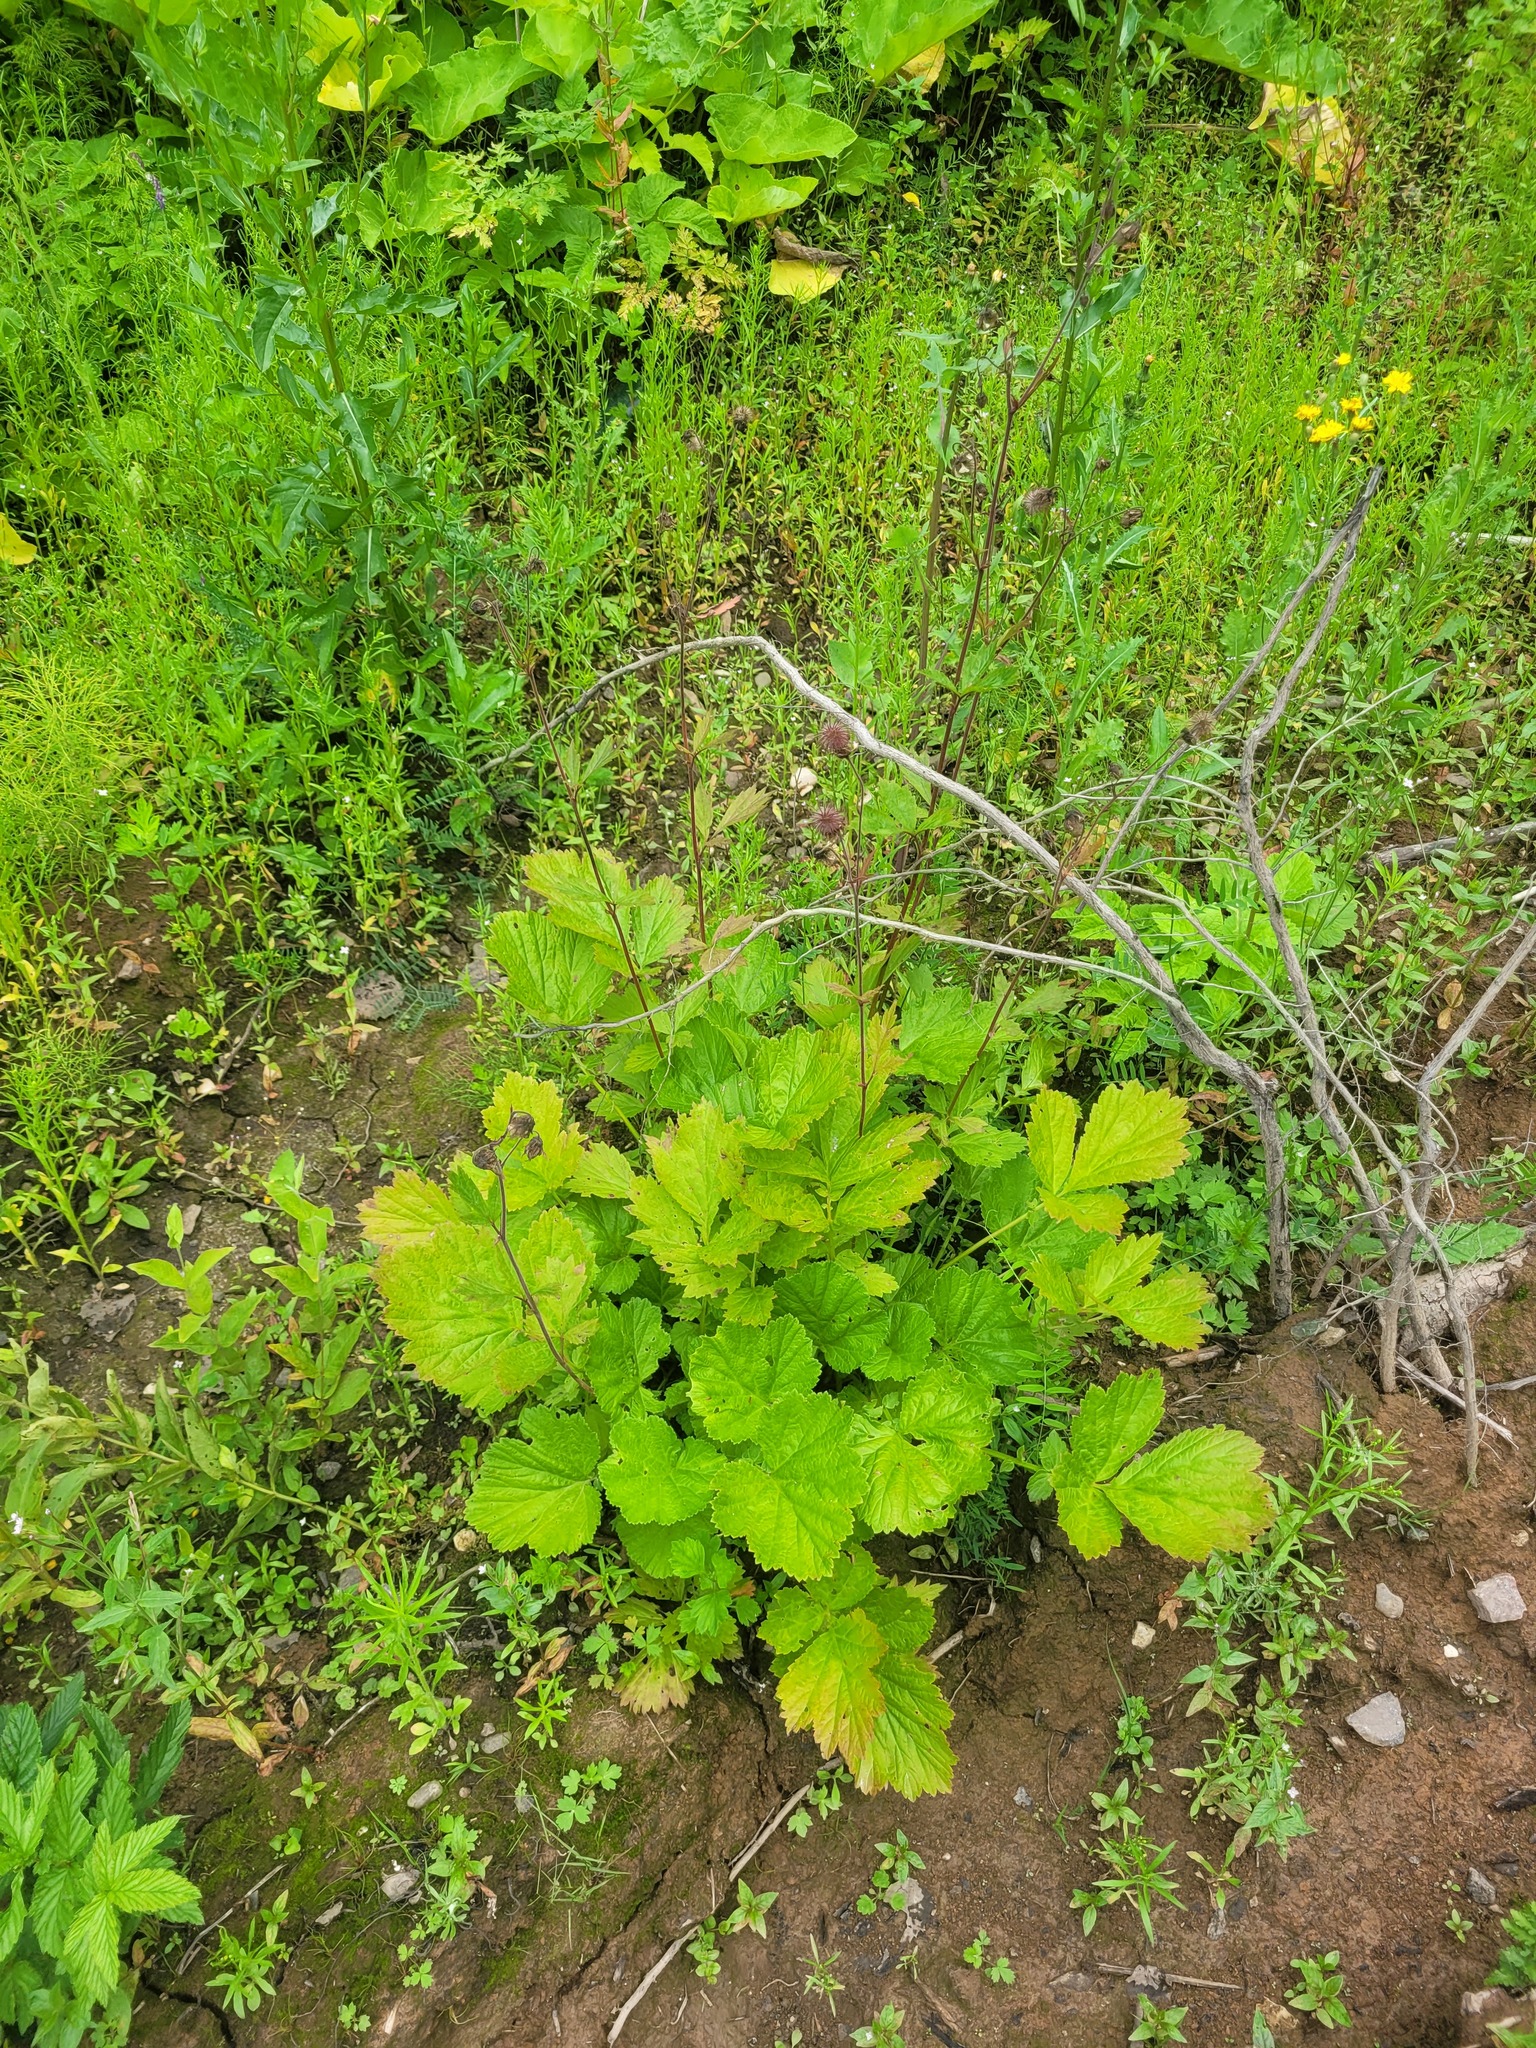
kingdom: Plantae
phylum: Tracheophyta
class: Magnoliopsida
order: Rosales
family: Rosaceae
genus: Geum
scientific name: Geum rivale
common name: Water avens
